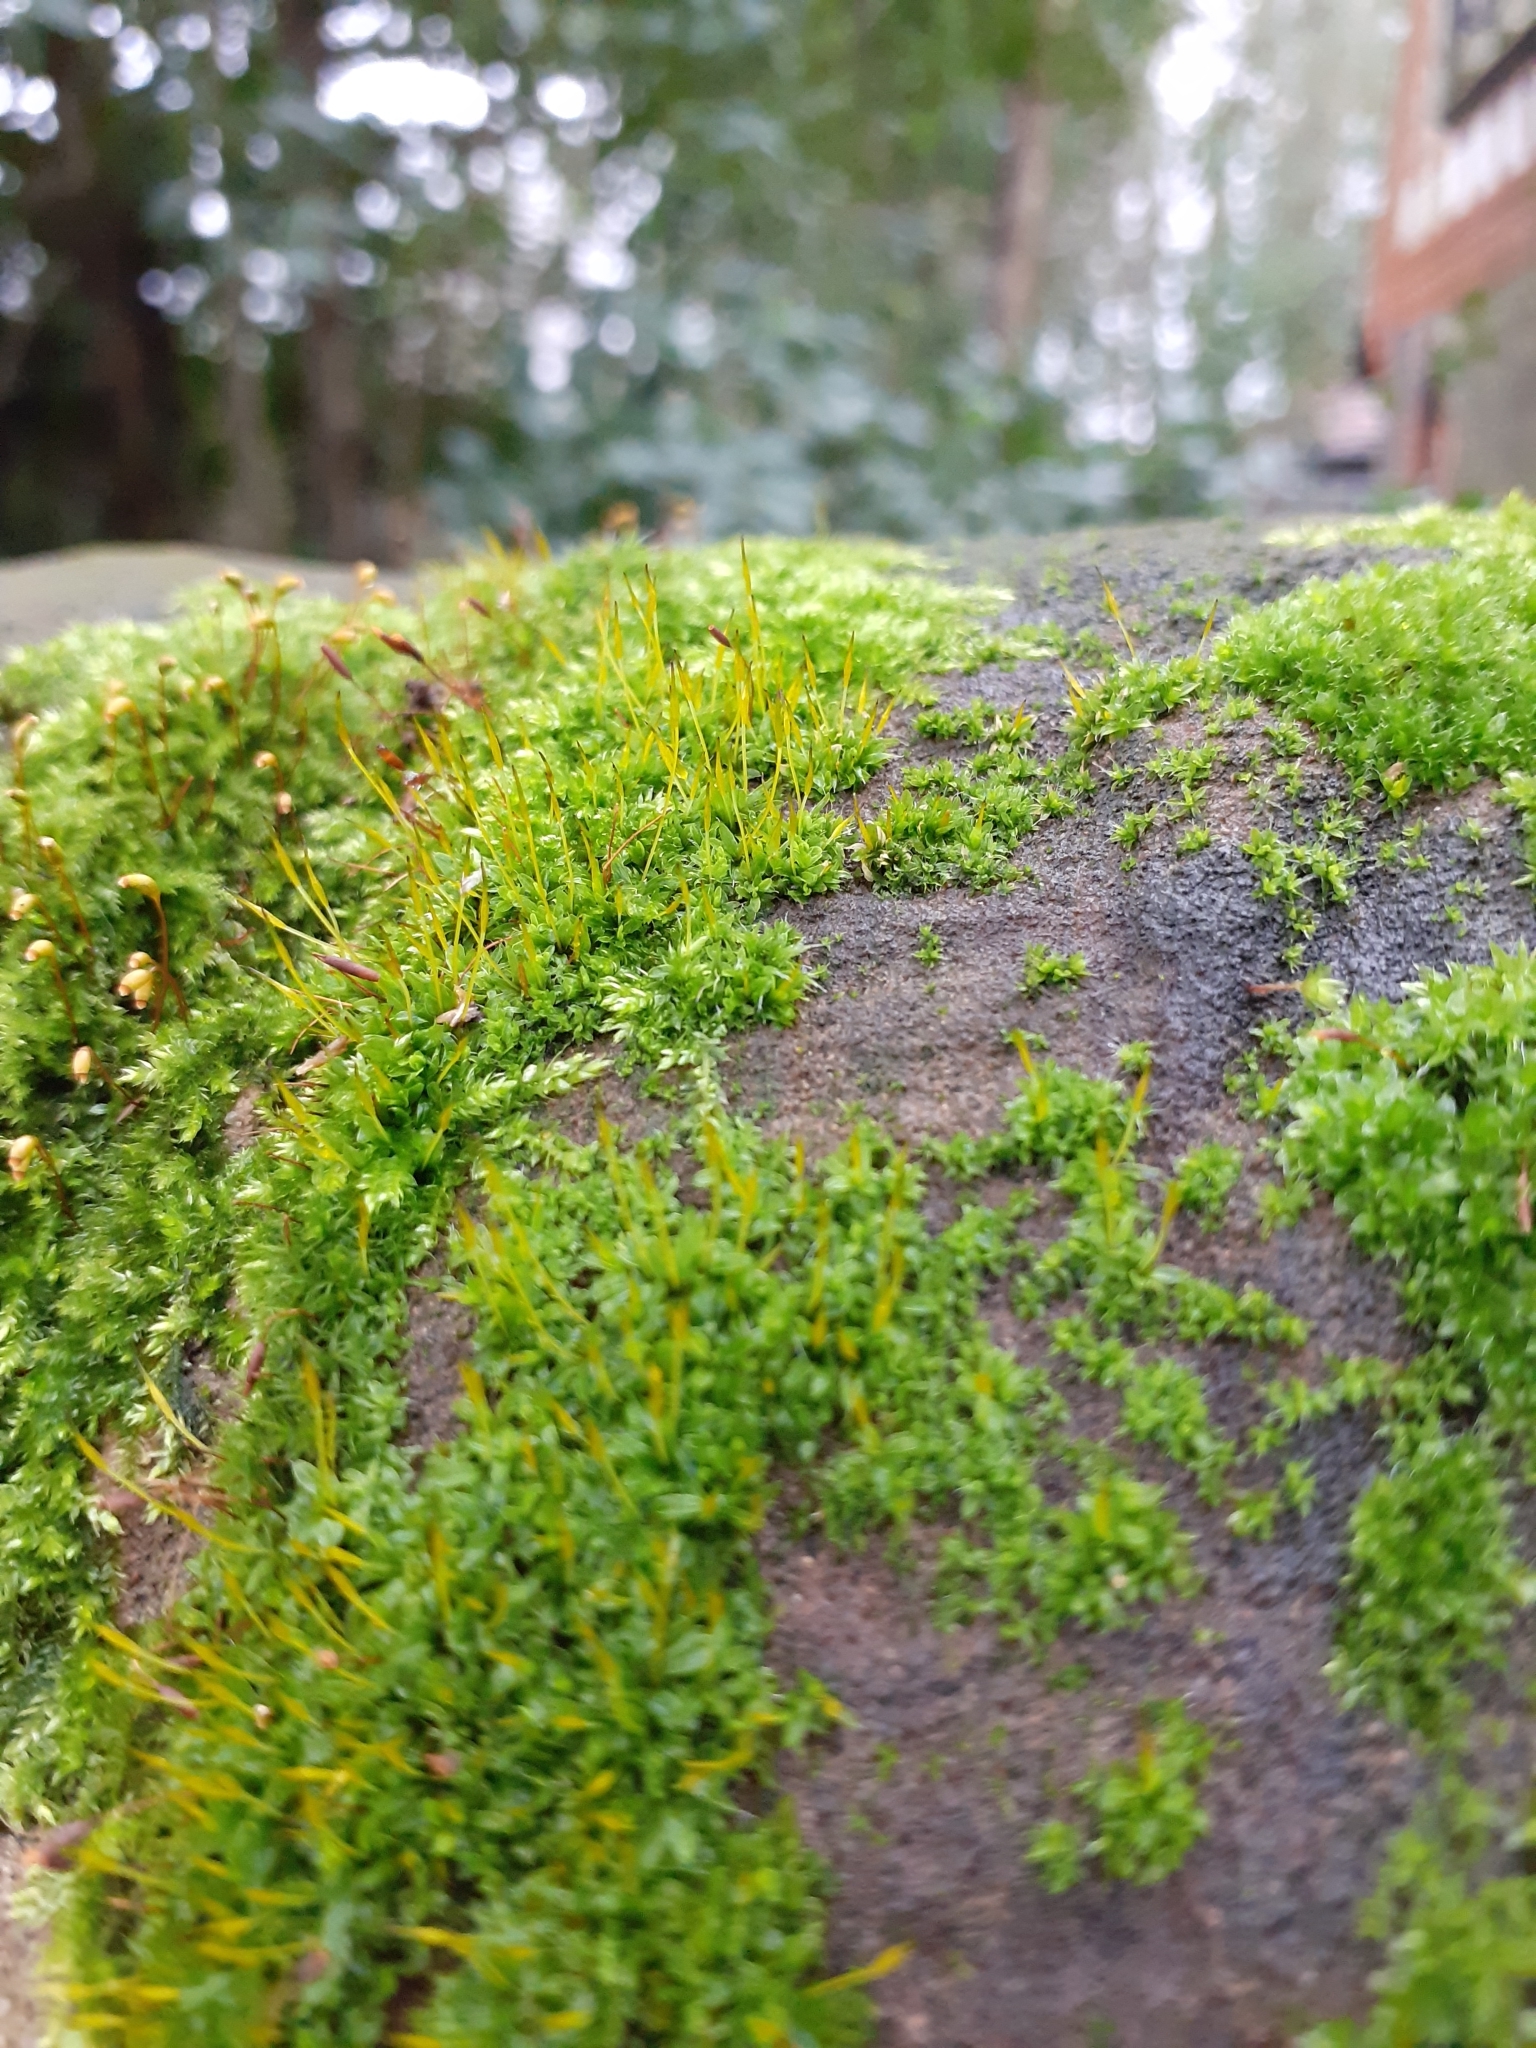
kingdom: Plantae
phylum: Bryophyta
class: Bryopsida
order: Pottiales
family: Pottiaceae
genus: Tortula
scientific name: Tortula muralis
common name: Wall screw-moss
